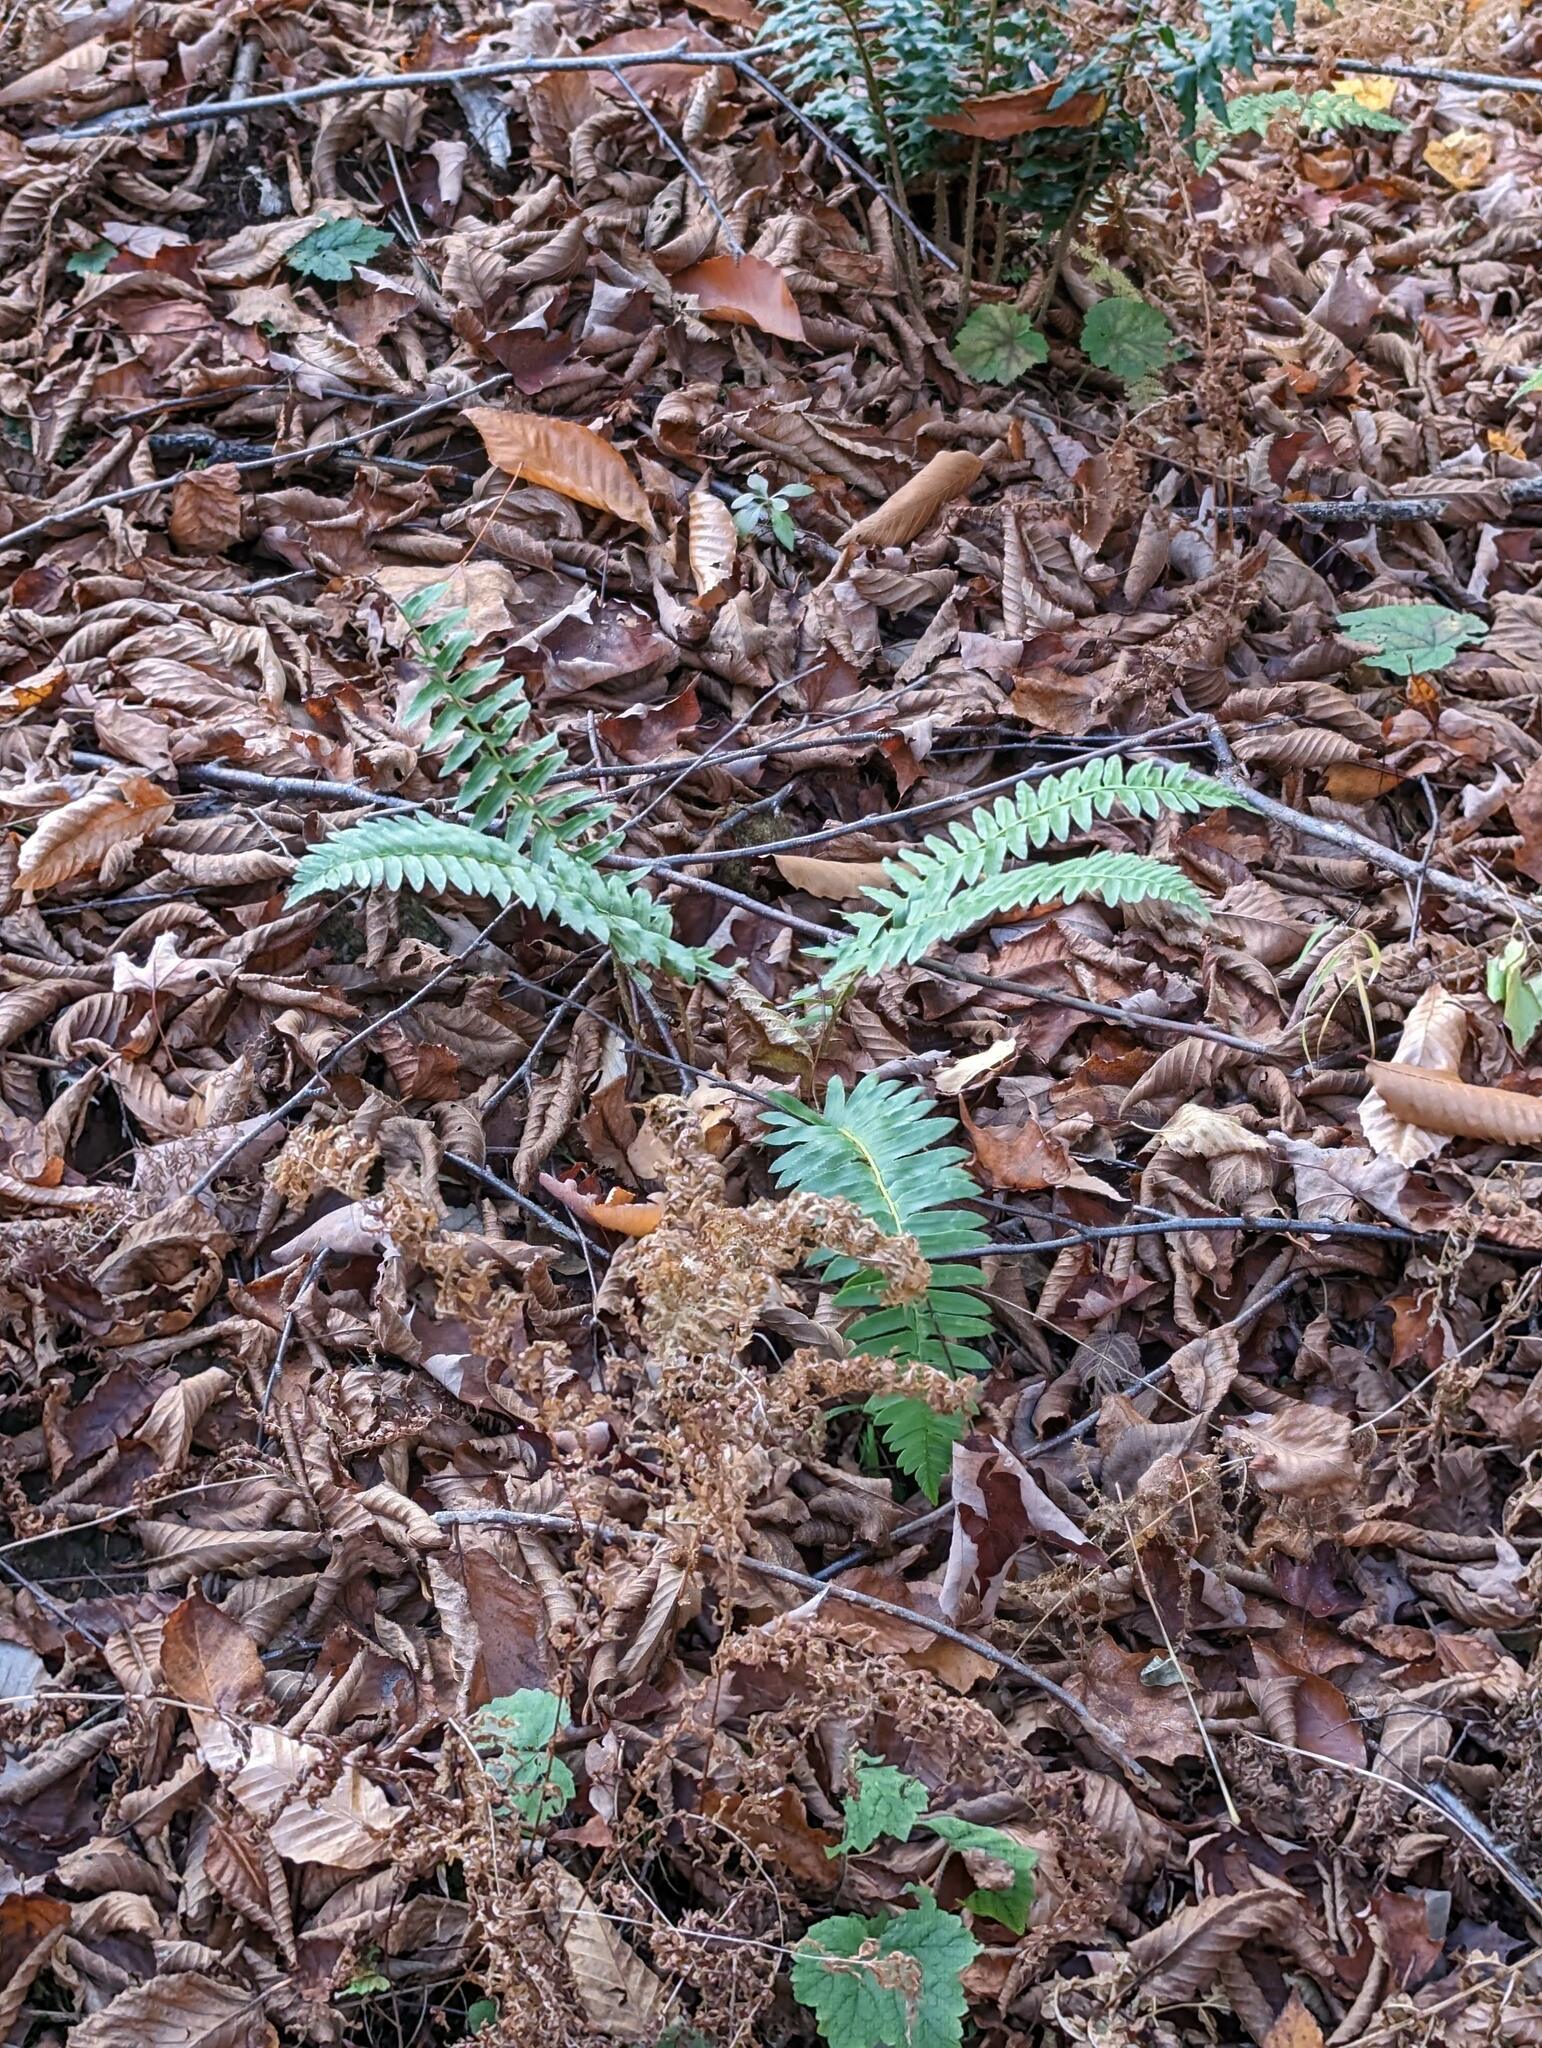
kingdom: Plantae
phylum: Tracheophyta
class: Polypodiopsida
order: Polypodiales
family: Dryopteridaceae
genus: Polystichum
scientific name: Polystichum acrostichoides
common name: Christmas fern
